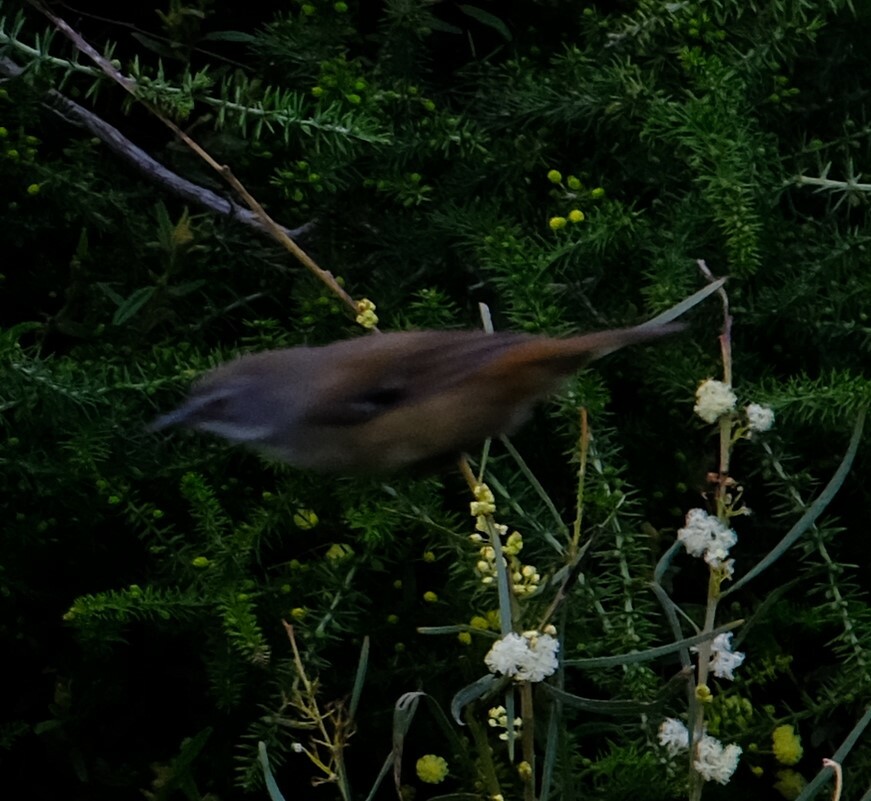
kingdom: Animalia
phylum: Chordata
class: Aves
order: Passeriformes
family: Acanthizidae
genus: Sericornis
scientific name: Sericornis frontalis
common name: White-browed scrubwren
